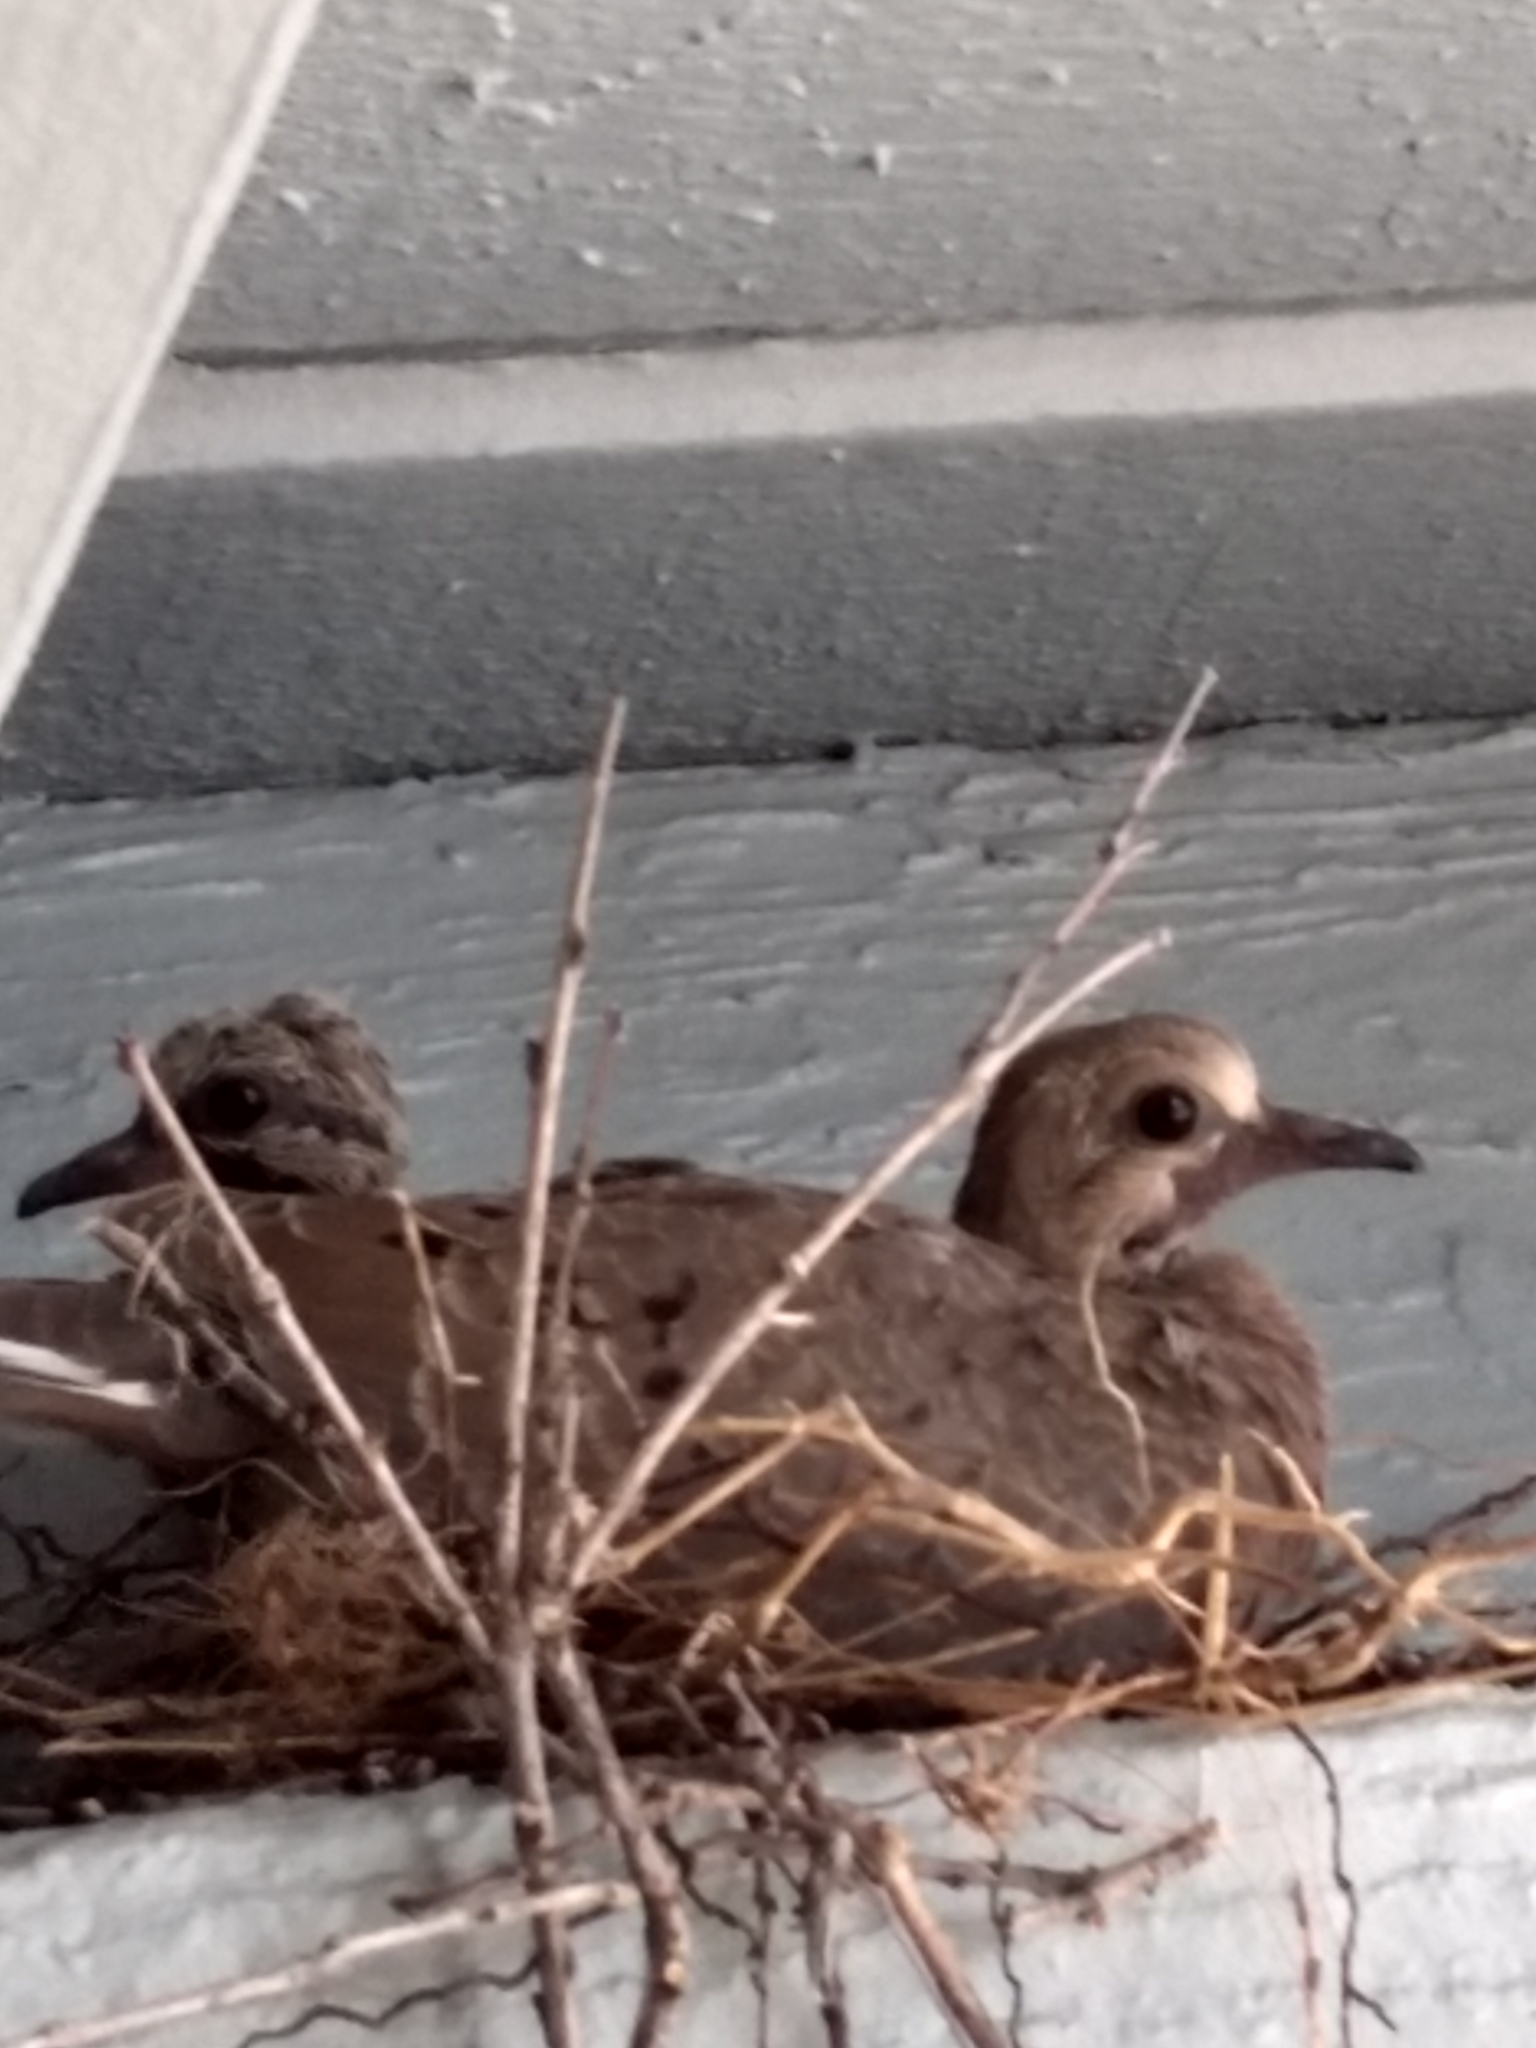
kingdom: Animalia
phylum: Chordata
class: Aves
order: Columbiformes
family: Columbidae
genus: Zenaida
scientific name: Zenaida macroura
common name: Mourning dove
